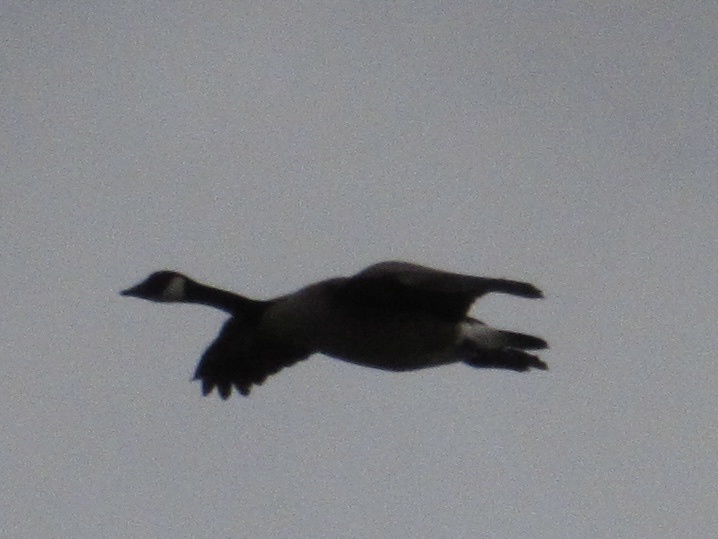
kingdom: Animalia
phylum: Chordata
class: Aves
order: Anseriformes
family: Anatidae
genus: Branta
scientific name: Branta canadensis
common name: Canada goose
